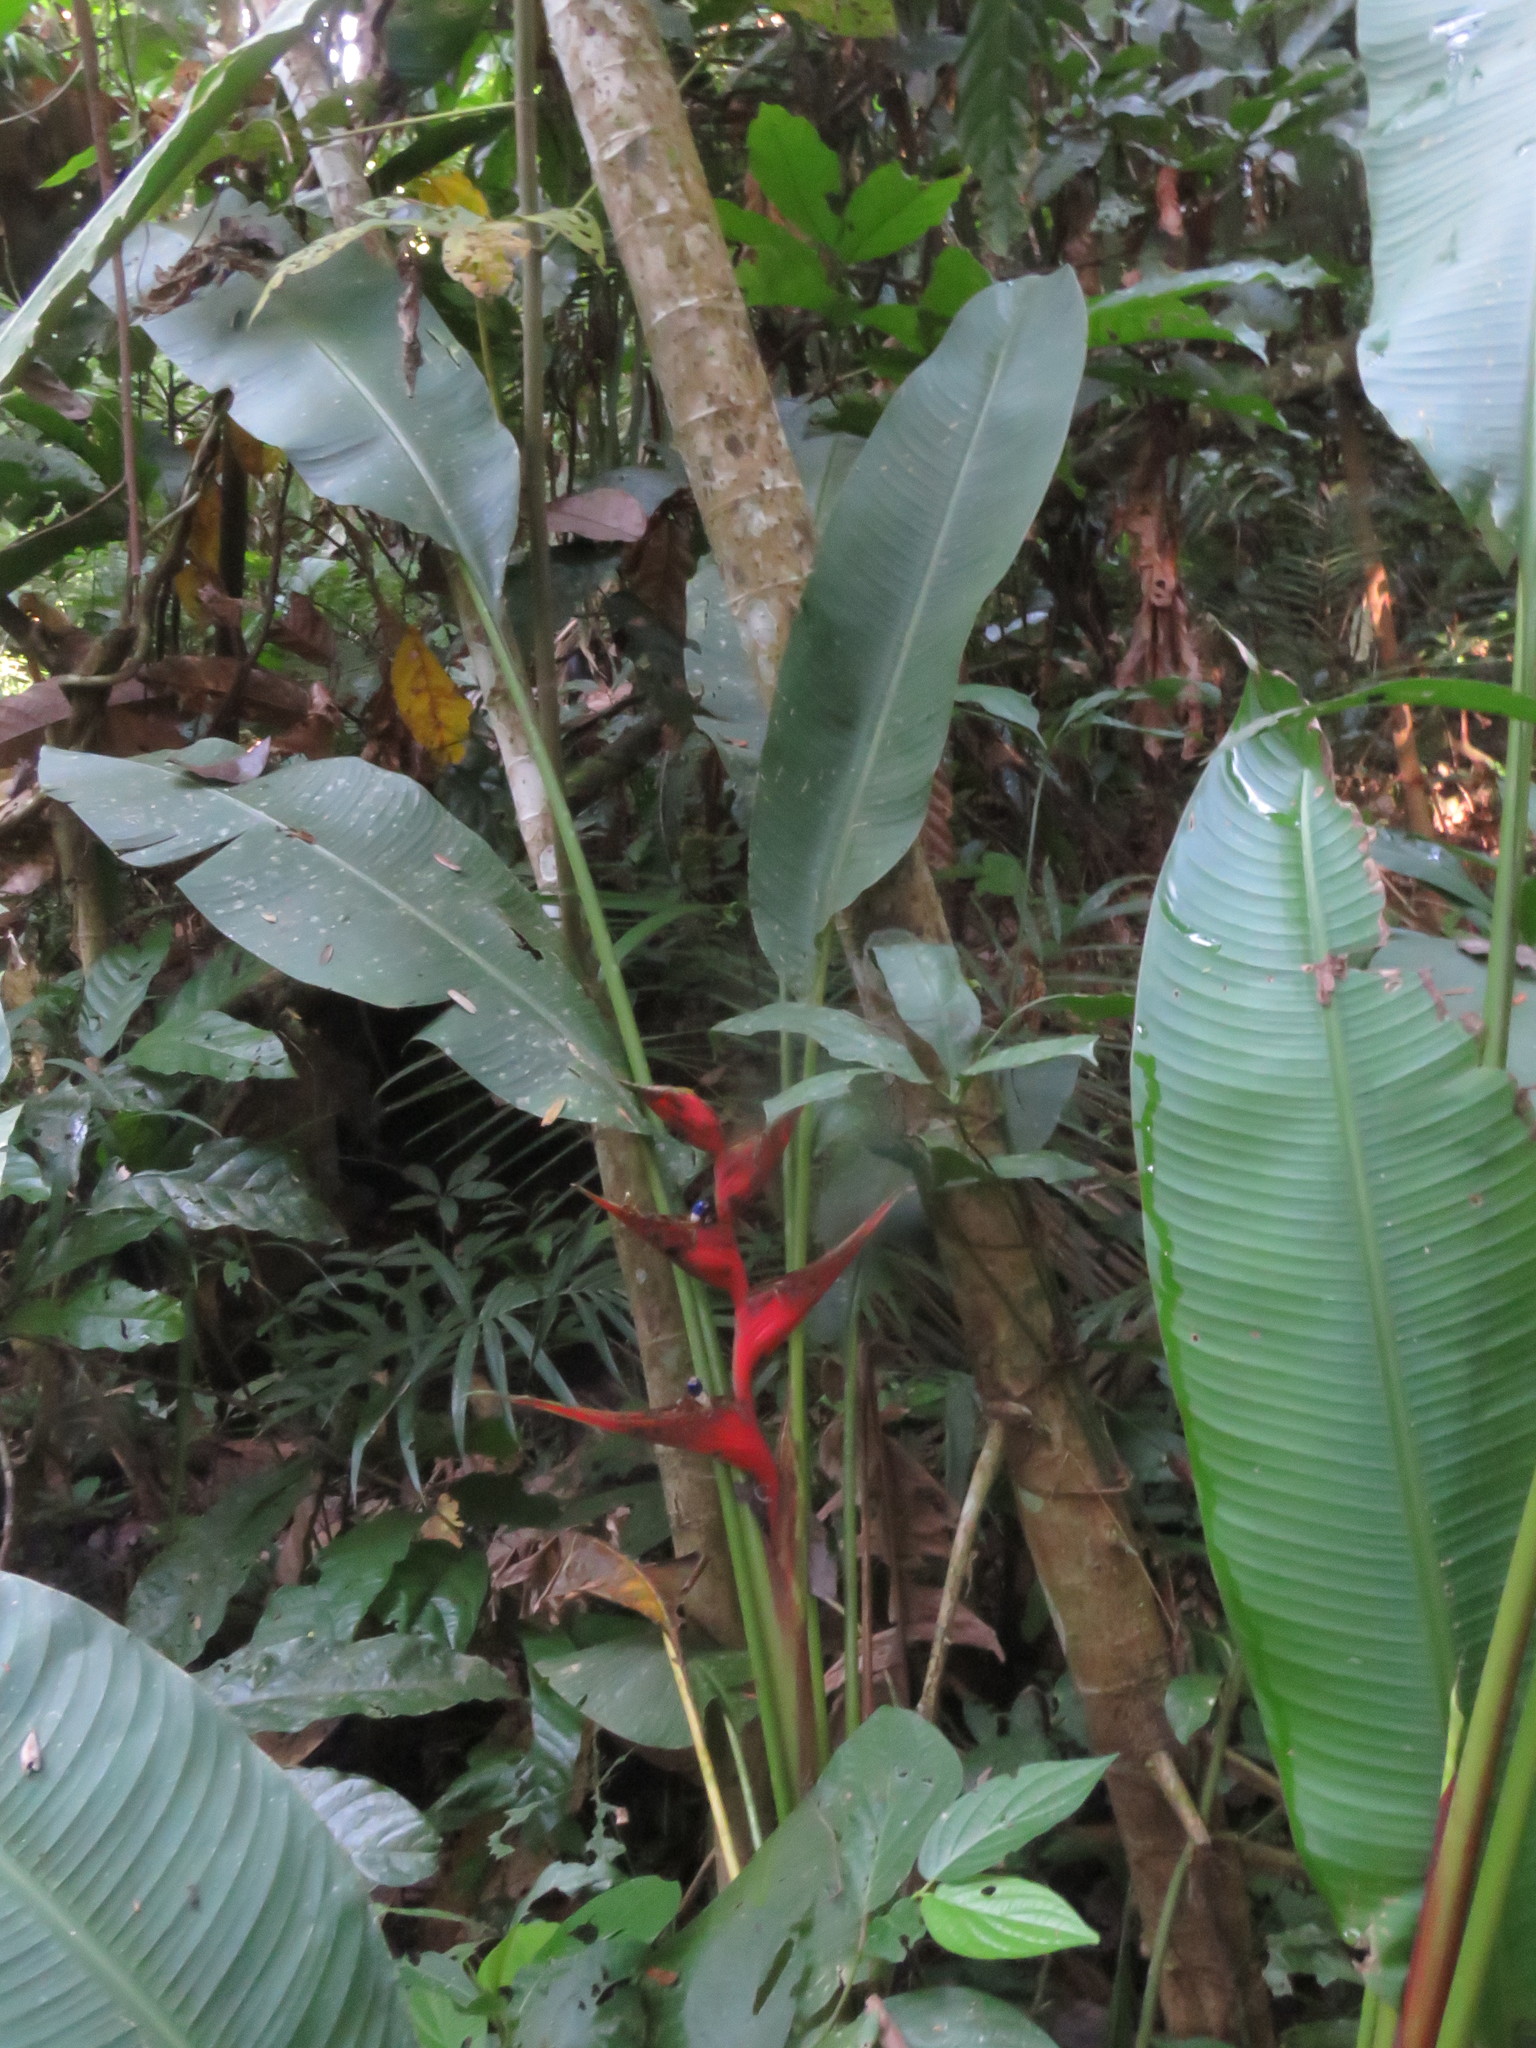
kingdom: Plantae
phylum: Tracheophyta
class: Liliopsida
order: Zingiberales
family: Heliconiaceae
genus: Heliconia
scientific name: Heliconia stricta
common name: Small lobster claw
